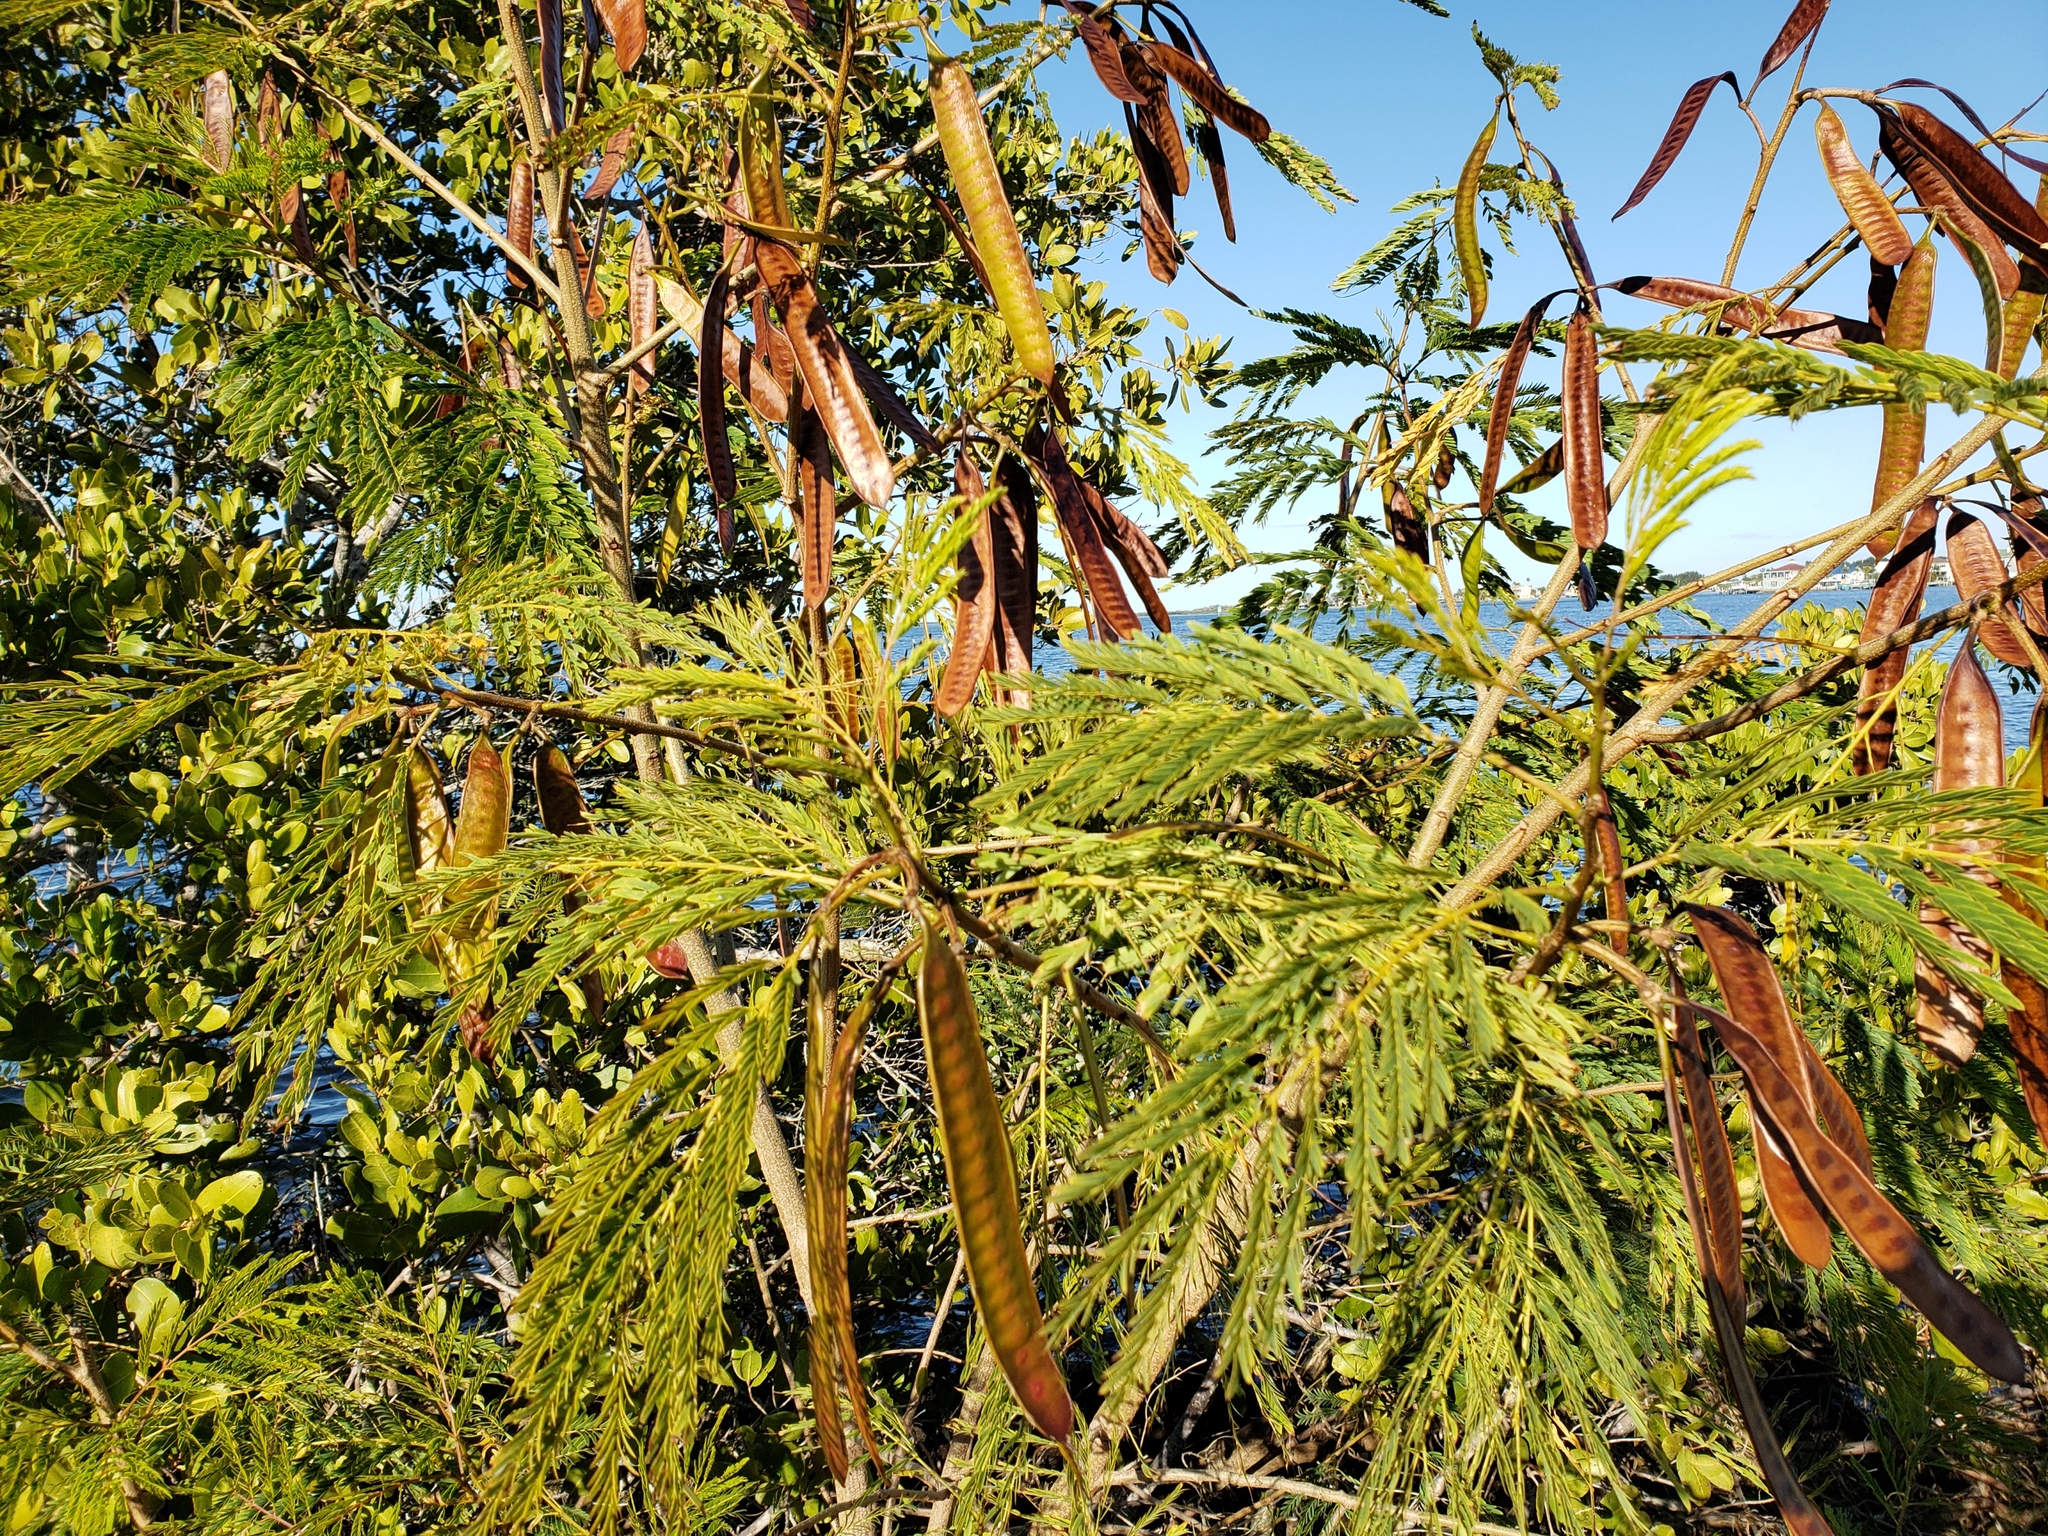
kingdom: Plantae
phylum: Tracheophyta
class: Magnoliopsida
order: Fabales
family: Fabaceae
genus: Leucaena
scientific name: Leucaena leucocephala
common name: White leadtree
